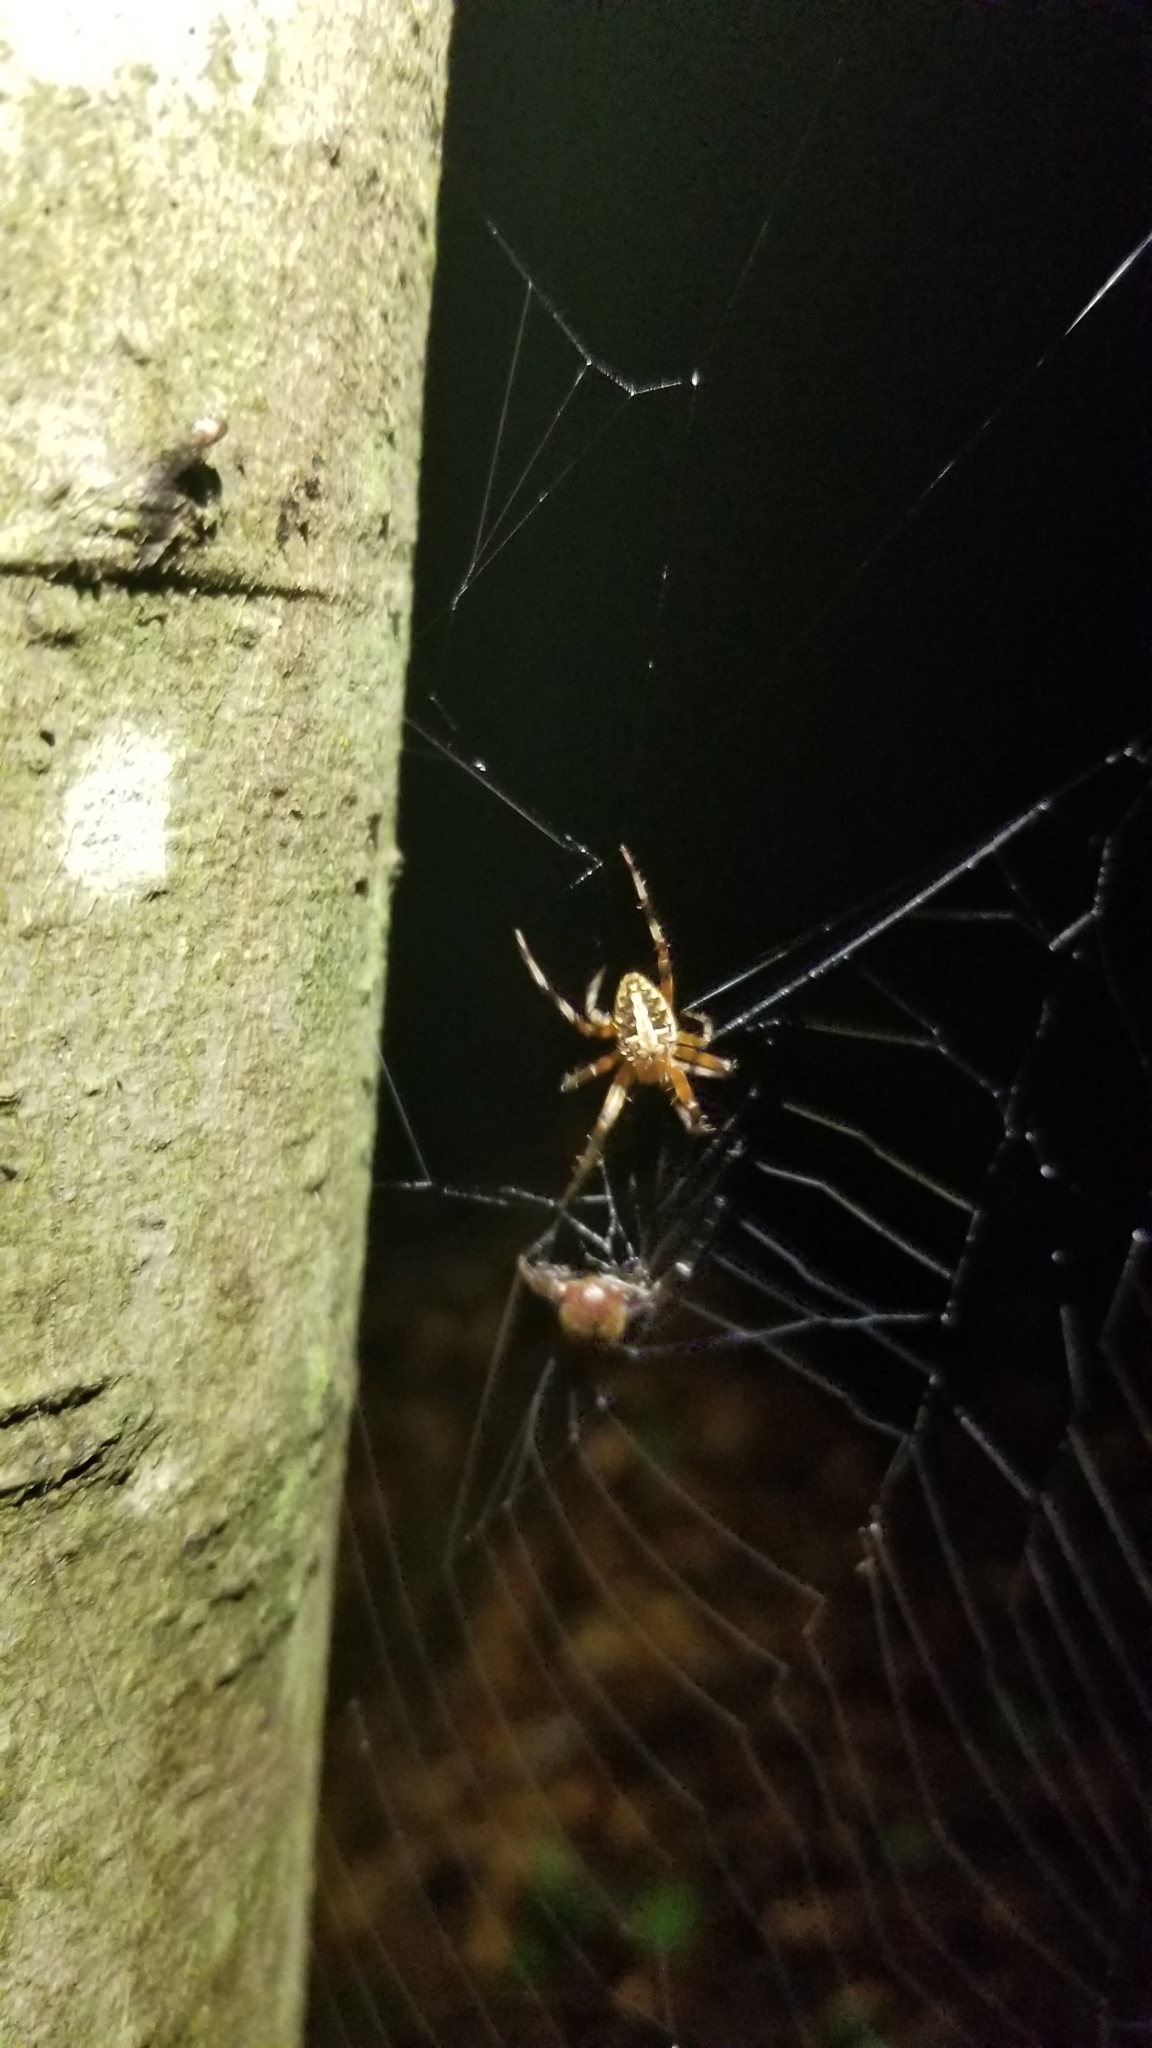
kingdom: Animalia
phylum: Arthropoda
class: Arachnida
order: Araneae
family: Araneidae
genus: Neoscona
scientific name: Neoscona domiciliorum
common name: Red-femured spotted orbweaver
